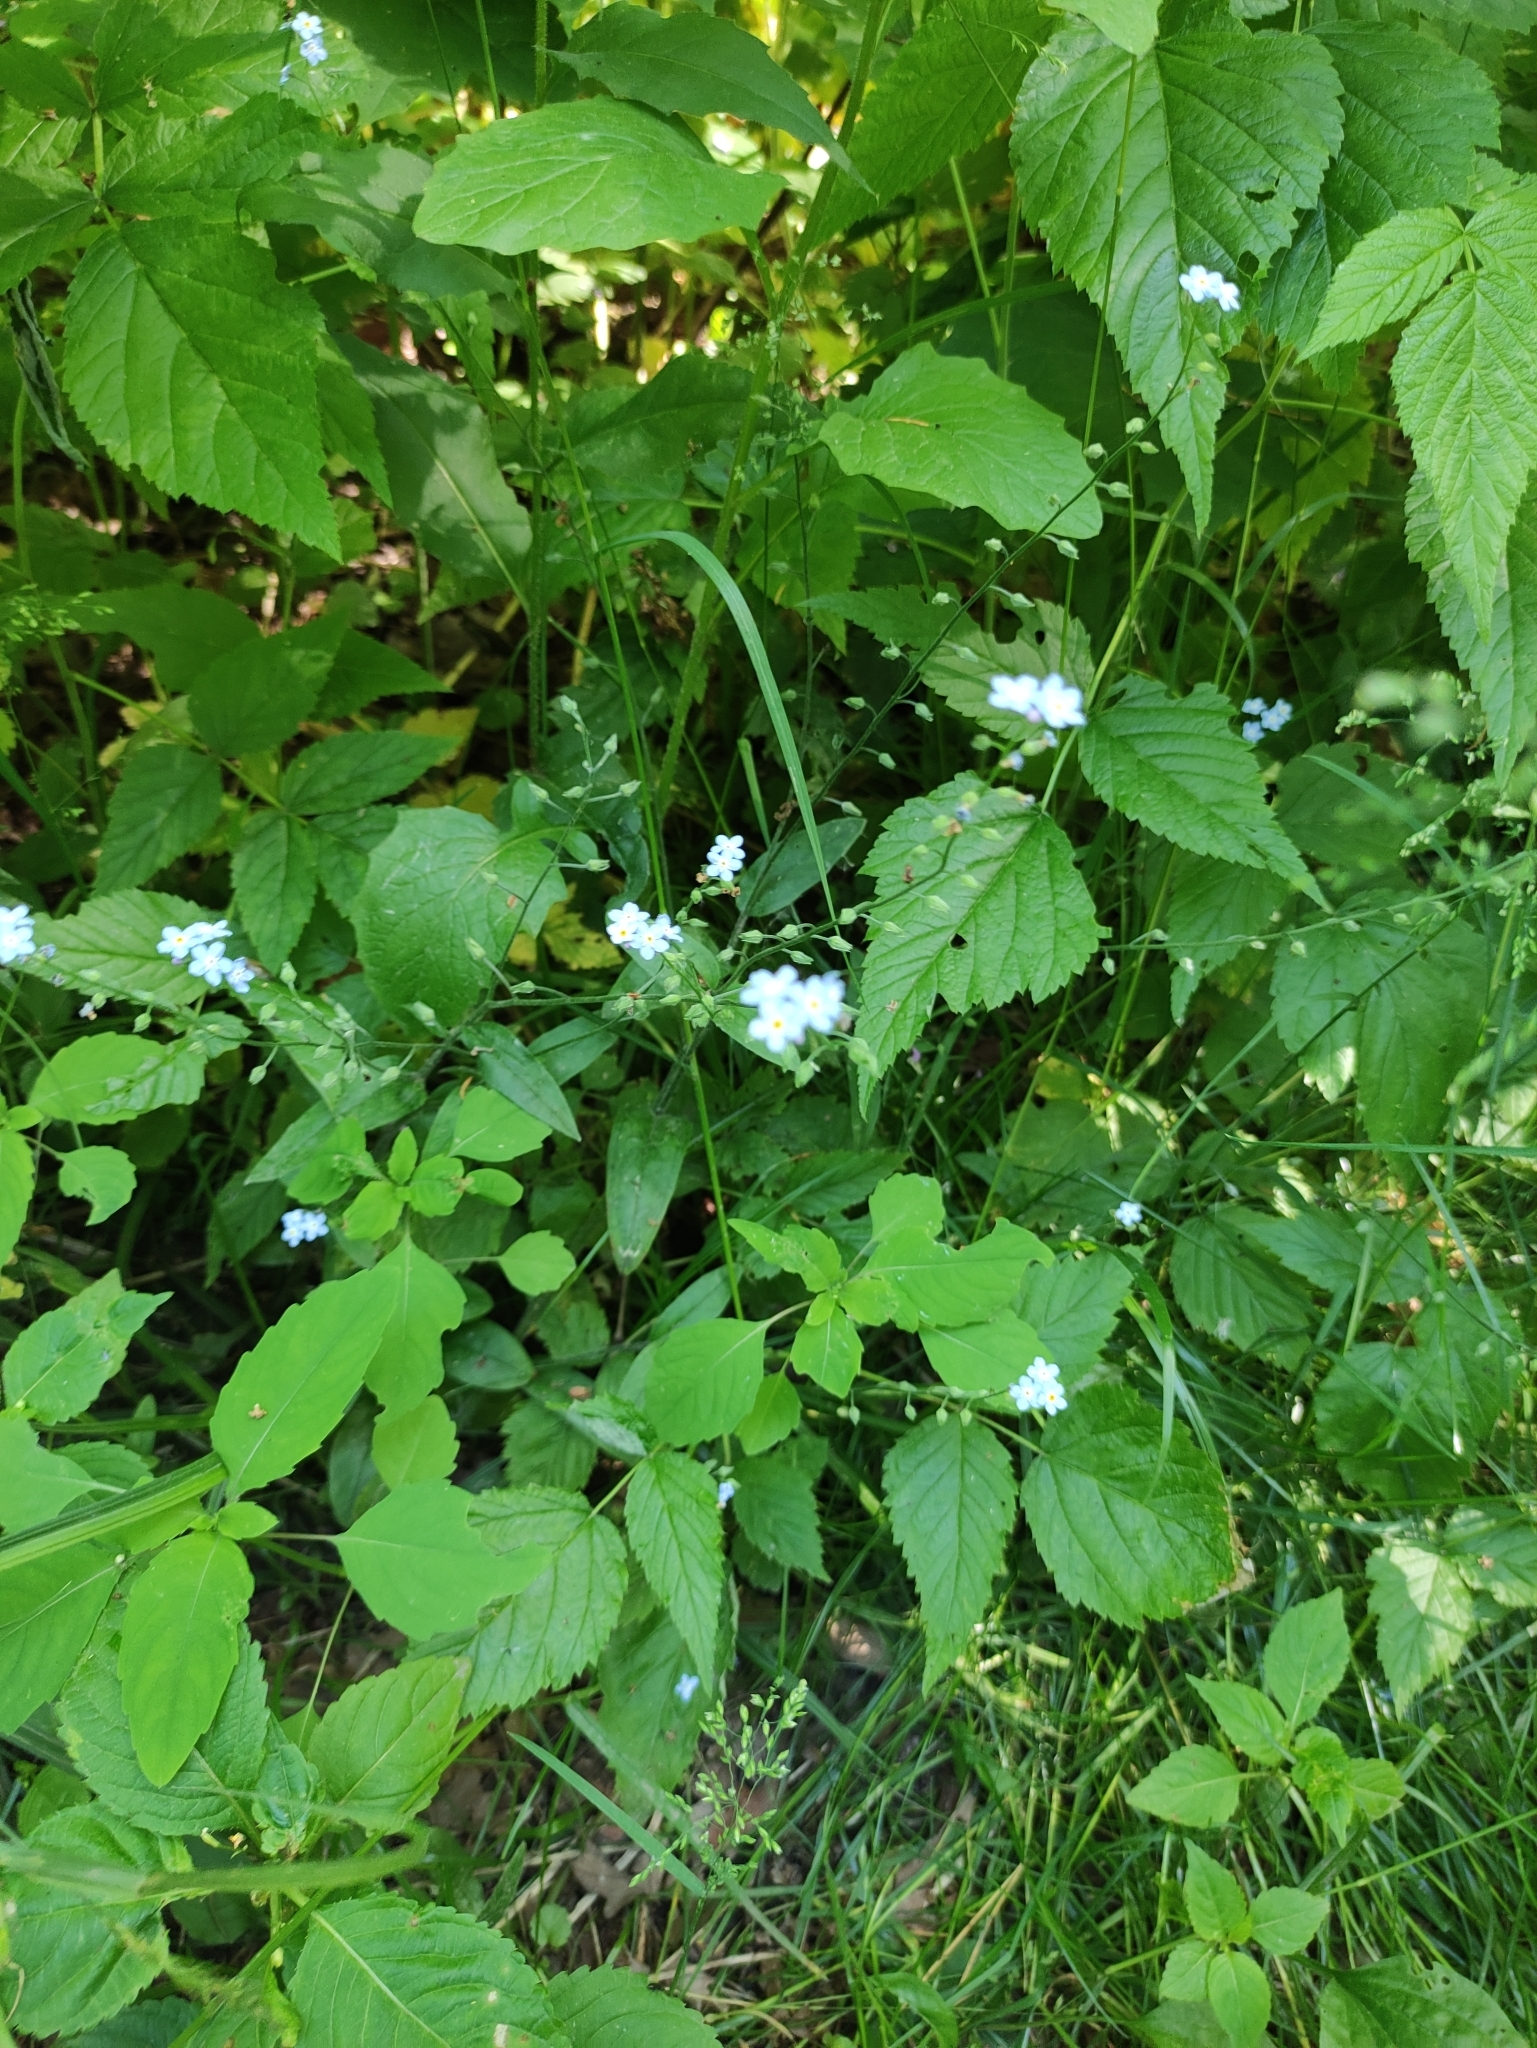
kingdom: Plantae
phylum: Tracheophyta
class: Magnoliopsida
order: Boraginales
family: Boraginaceae
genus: Myosotis
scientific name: Myosotis sylvatica
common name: Wood forget-me-not
